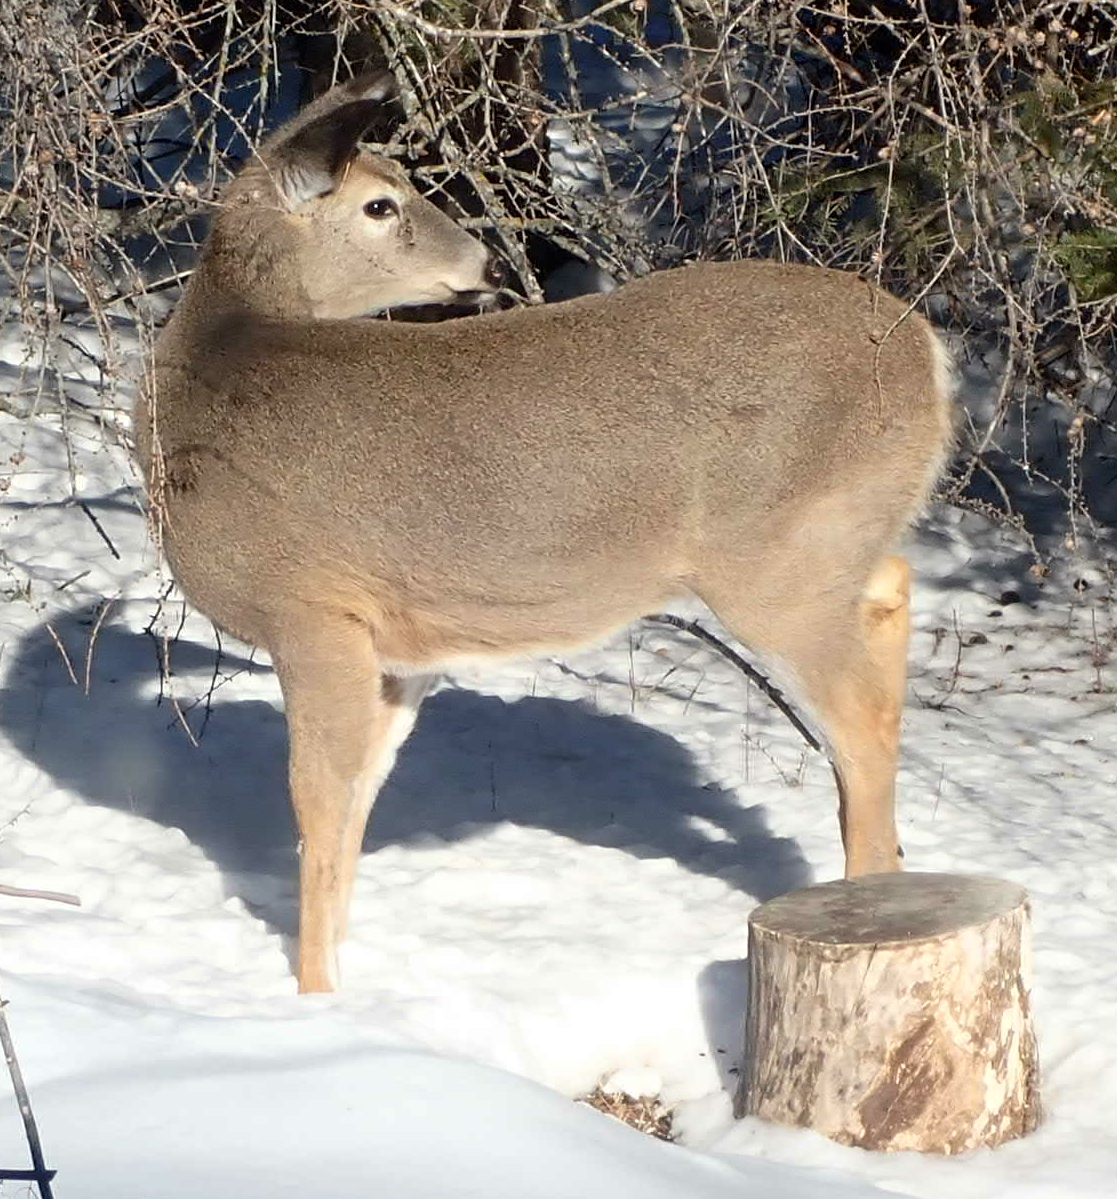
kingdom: Animalia
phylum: Chordata
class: Mammalia
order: Artiodactyla
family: Cervidae
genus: Odocoileus
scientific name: Odocoileus virginianus
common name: White-tailed deer
